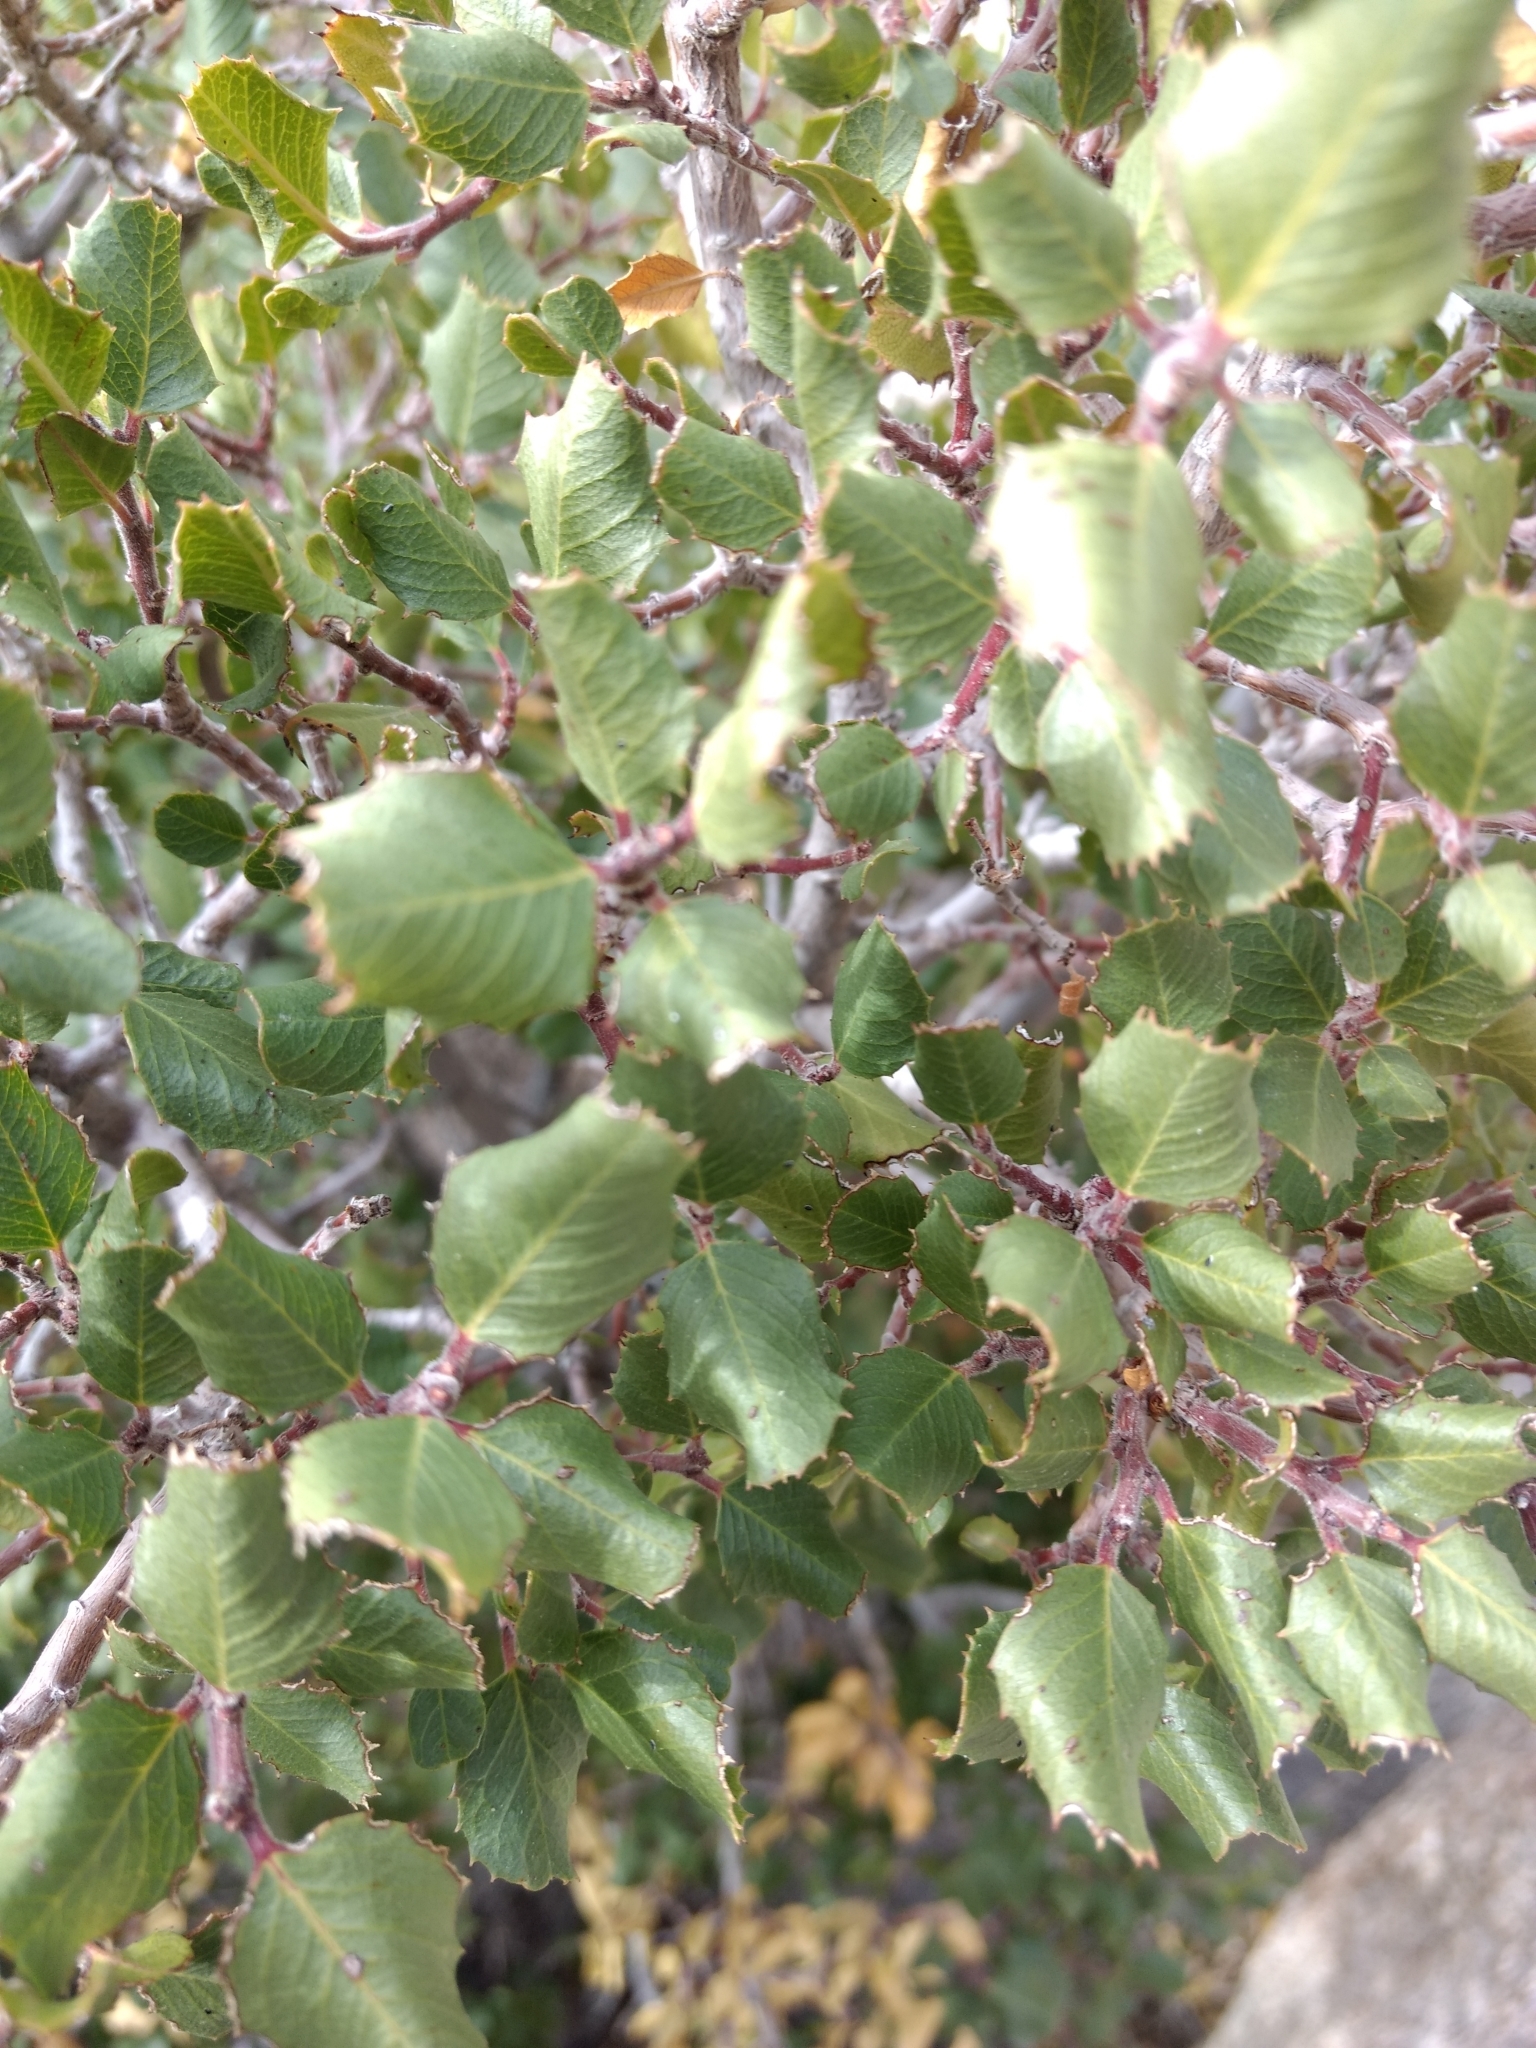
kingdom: Plantae
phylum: Tracheophyta
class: Magnoliopsida
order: Rosales
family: Rhamnaceae
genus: Endotropis
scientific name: Endotropis crocea
